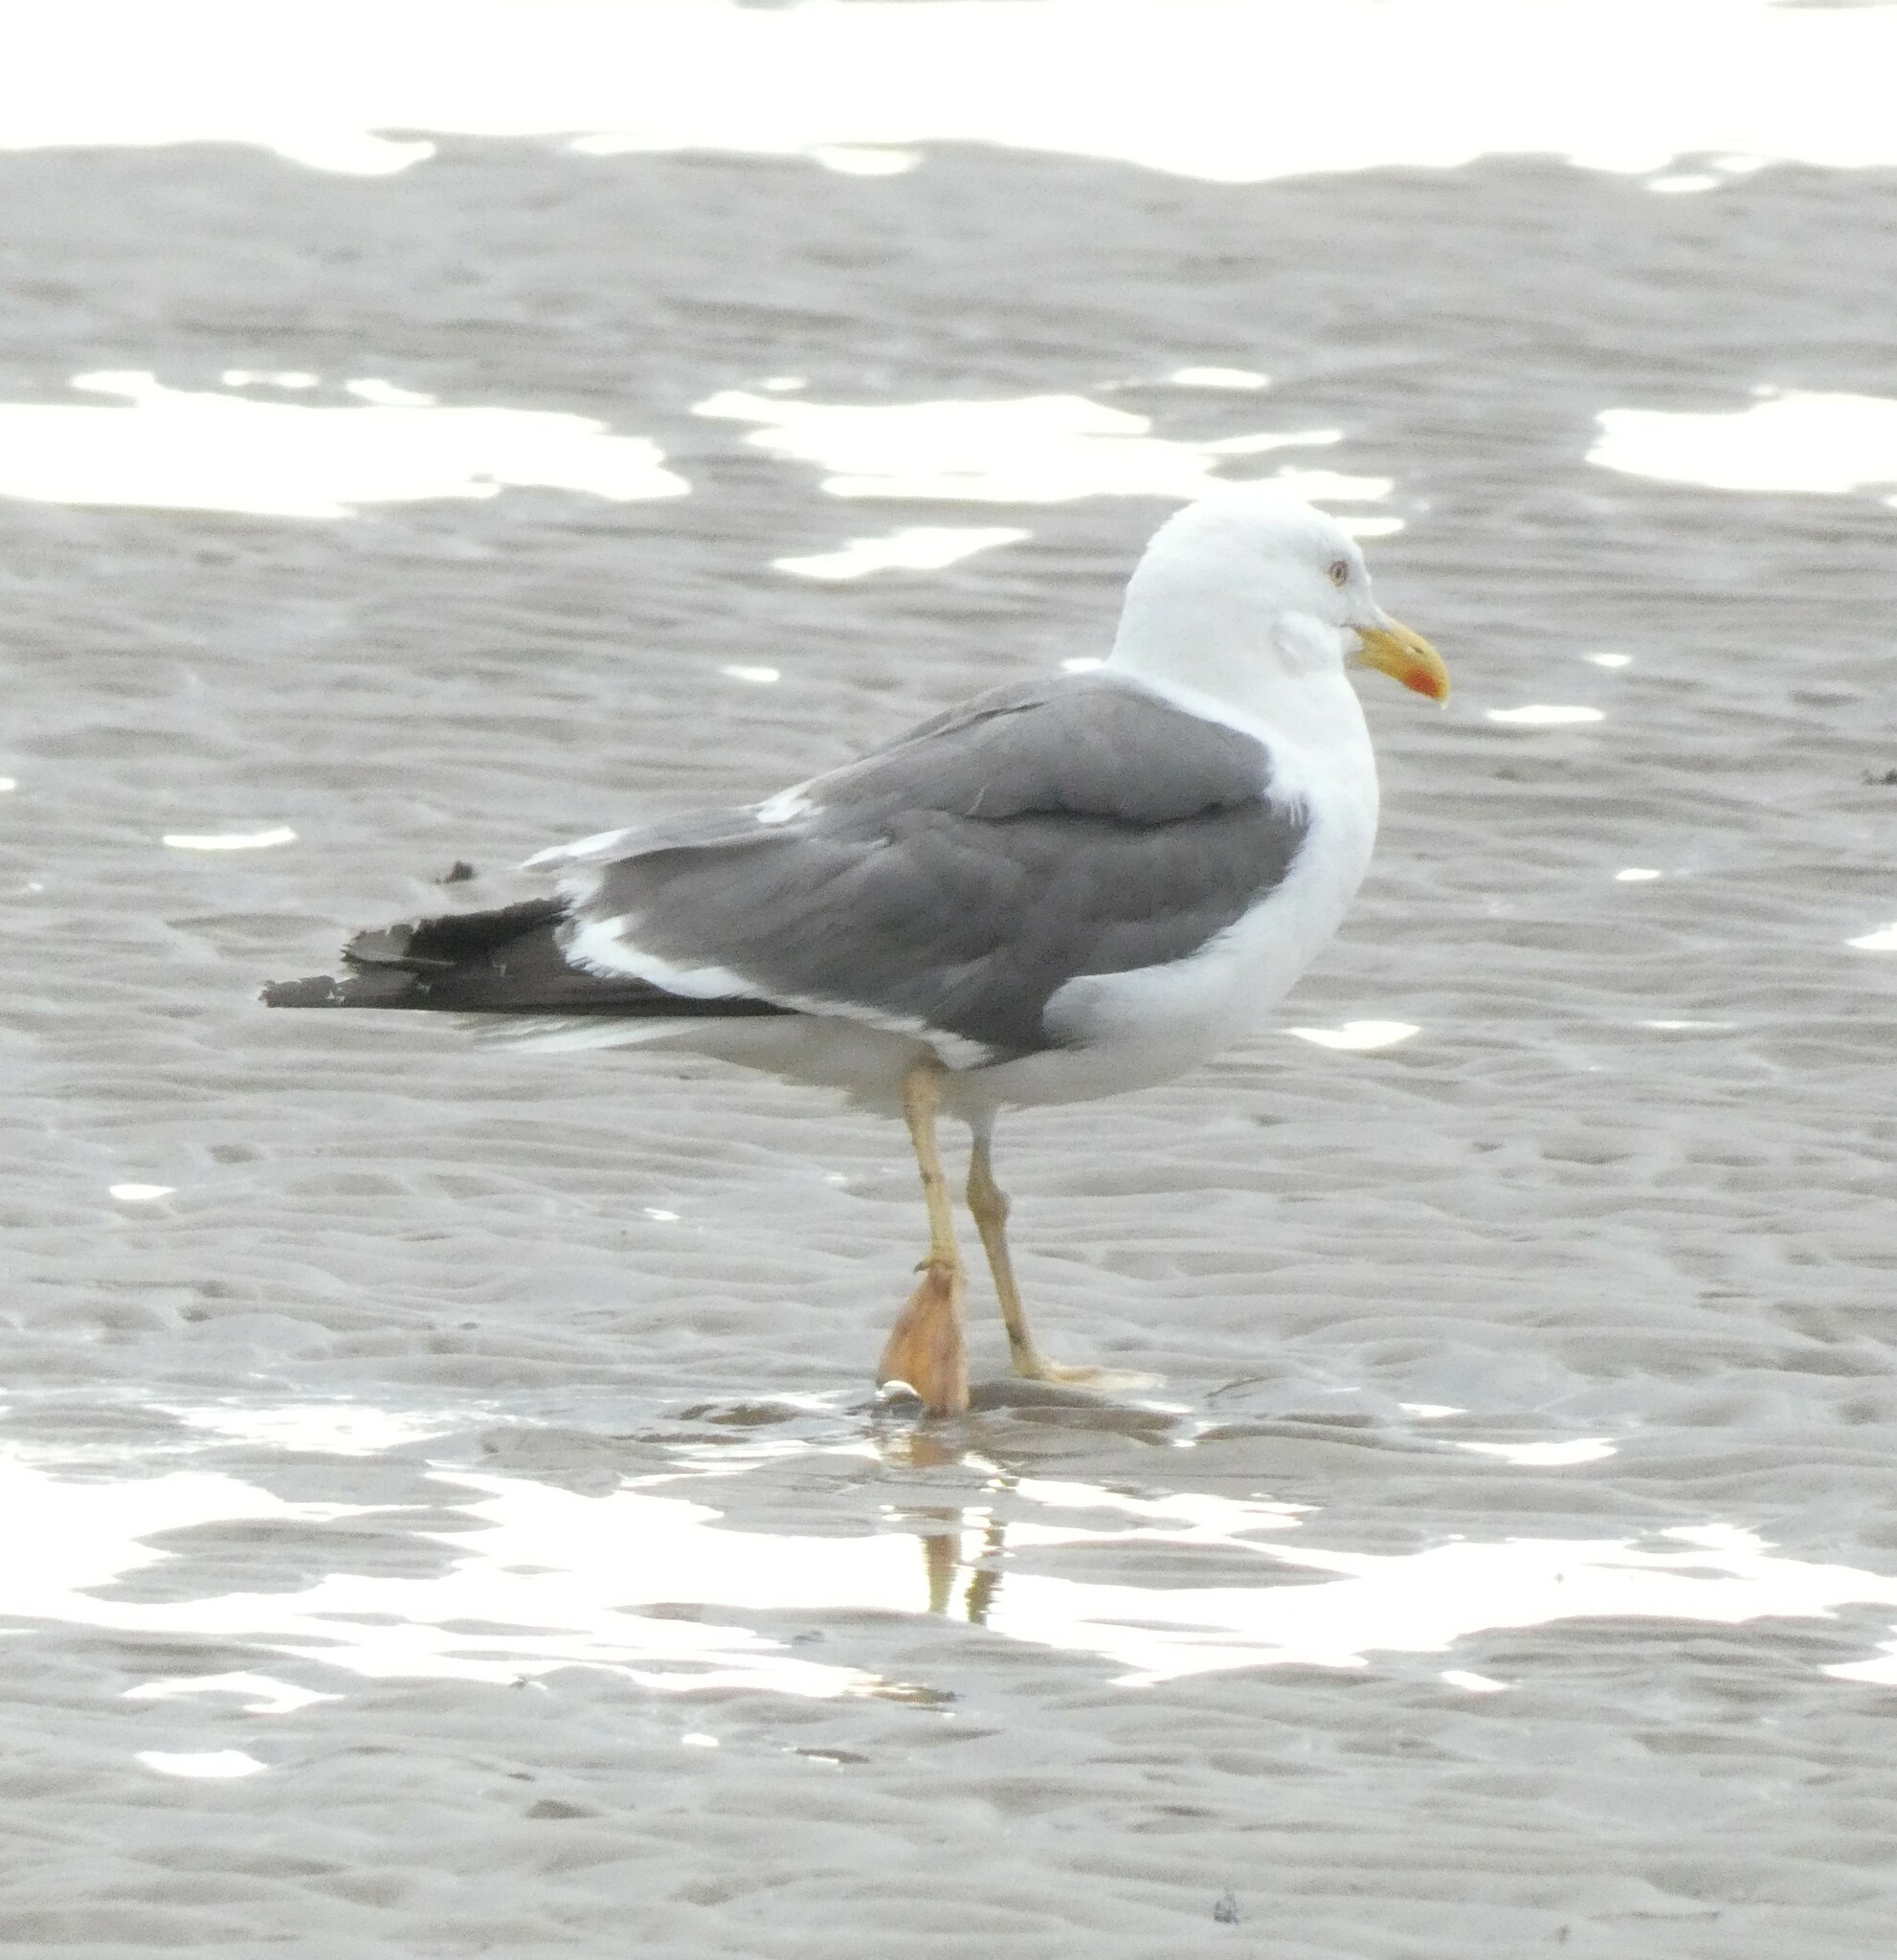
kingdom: Animalia
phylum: Chordata
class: Aves
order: Charadriiformes
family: Laridae
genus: Larus
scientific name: Larus fuscus
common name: Lesser black-backed gull
